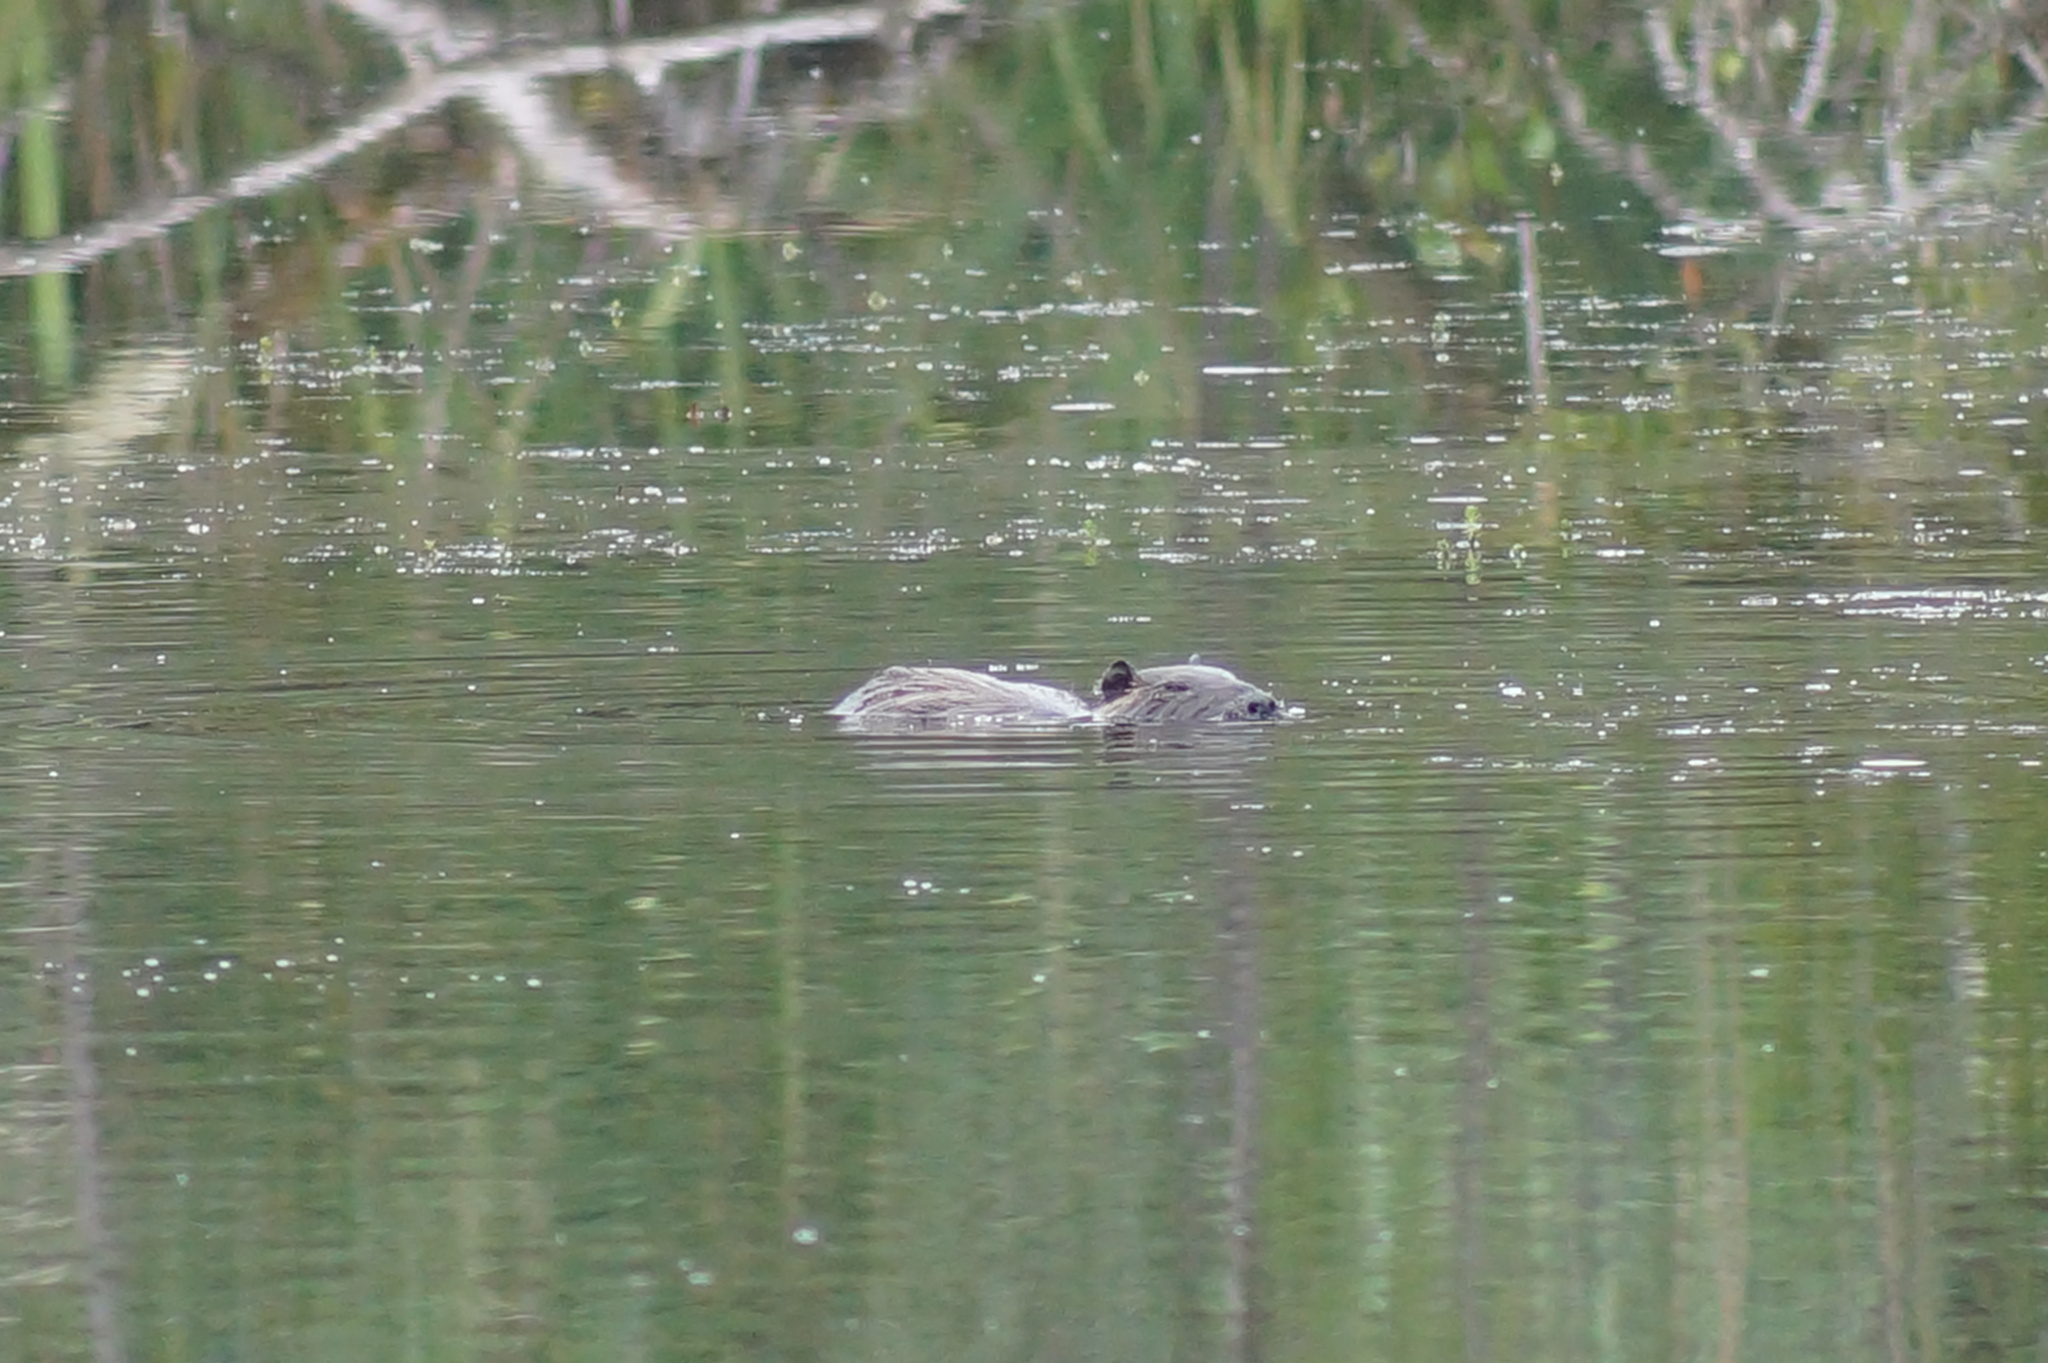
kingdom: Animalia
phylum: Chordata
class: Mammalia
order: Rodentia
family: Myocastoridae
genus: Myocastor
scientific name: Myocastor coypus
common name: Coypu
